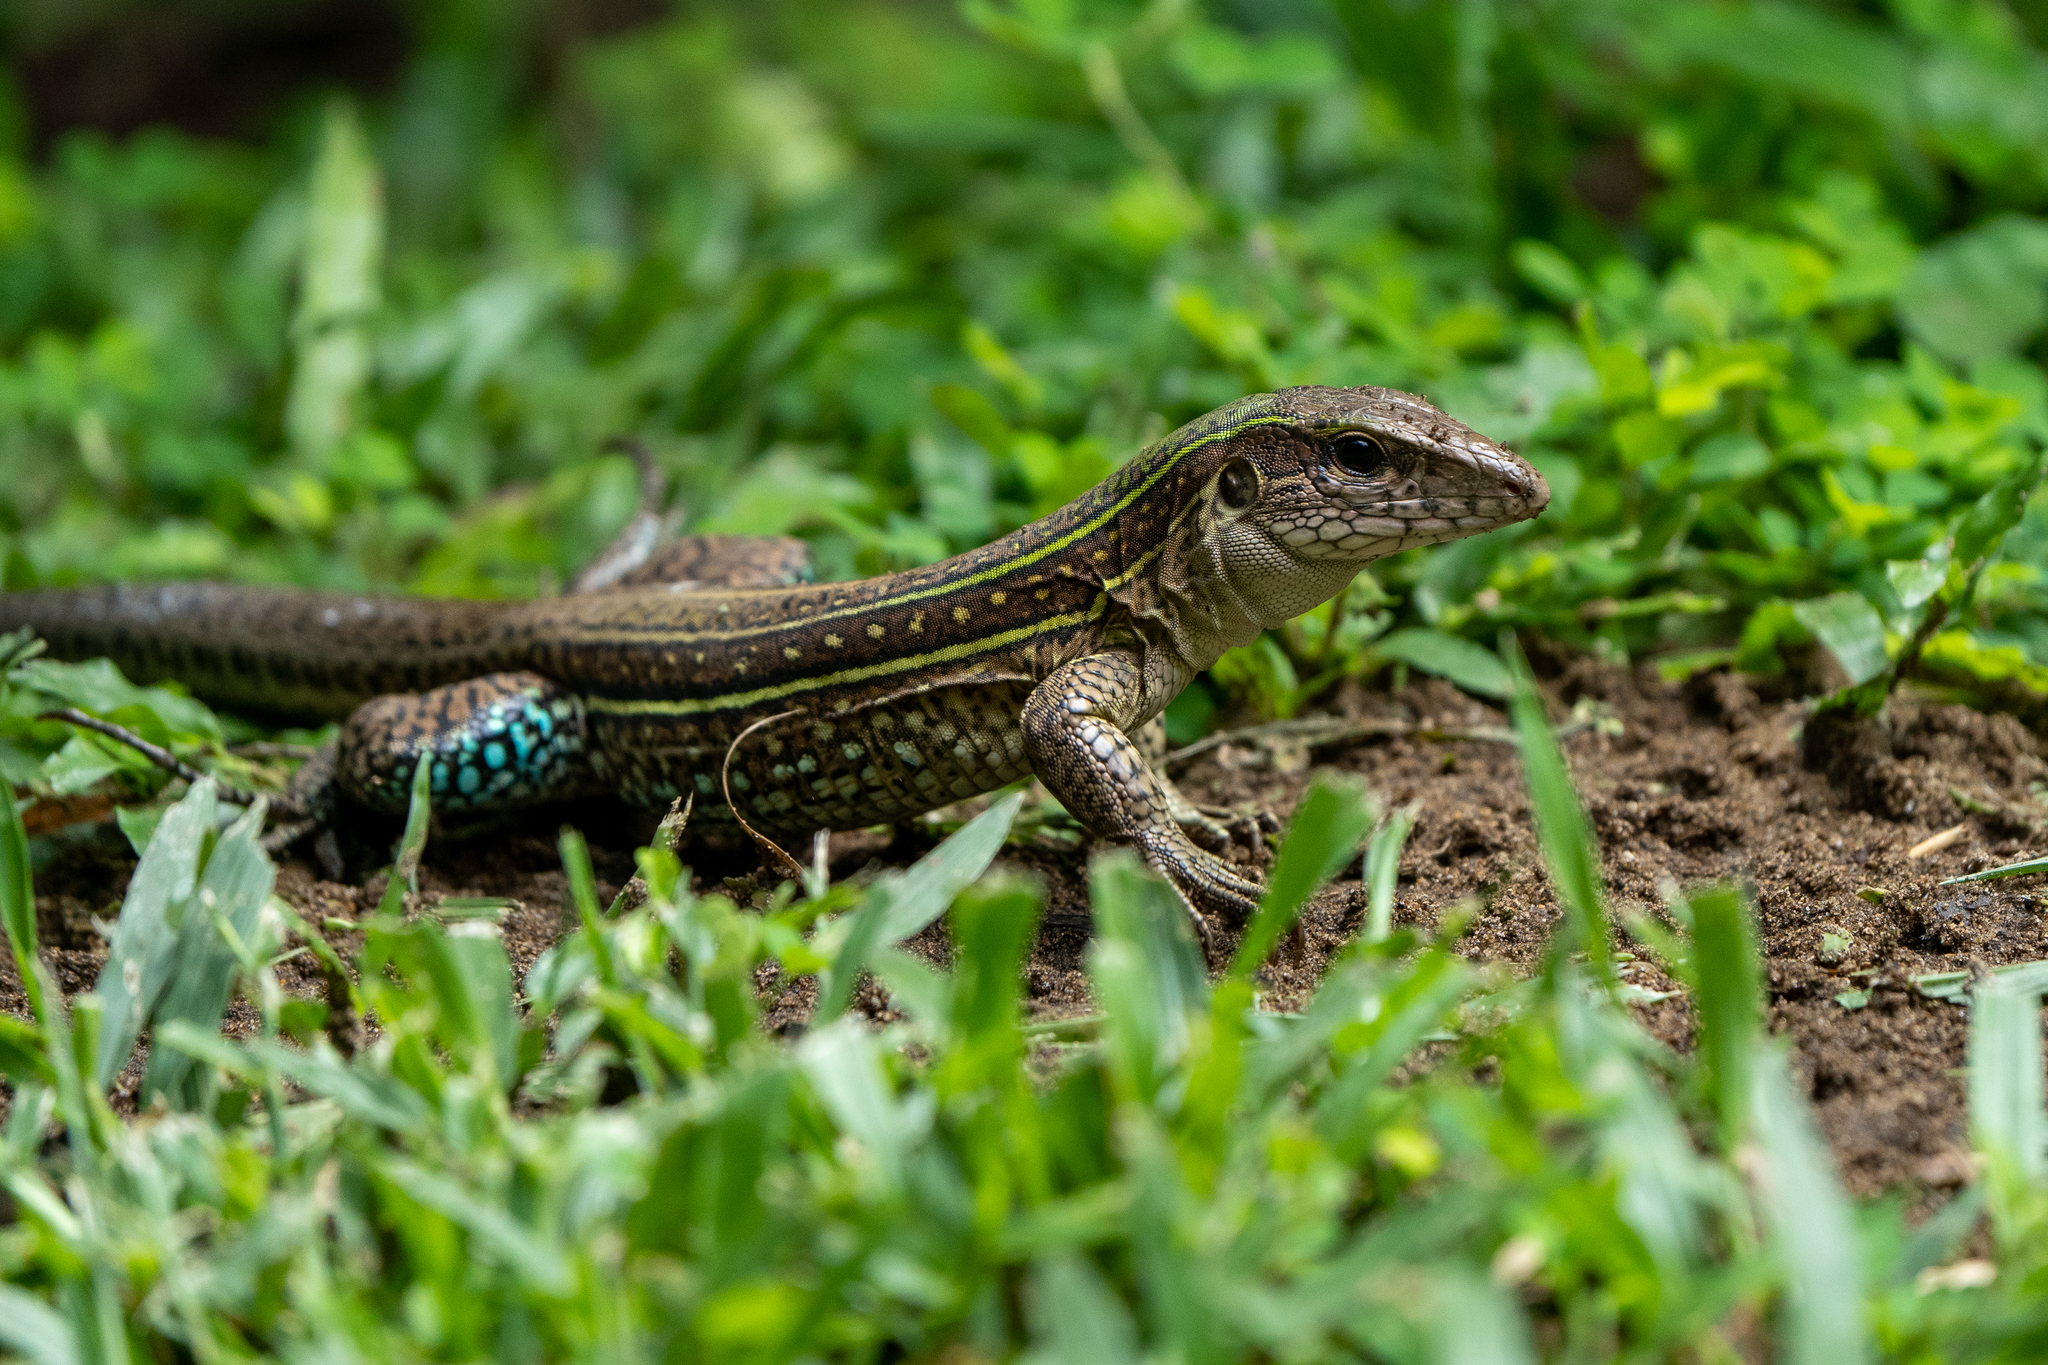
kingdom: Animalia
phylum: Chordata
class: Squamata
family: Teiidae
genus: Ameiva
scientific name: Ameiva praesignis
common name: Giant ameiva
